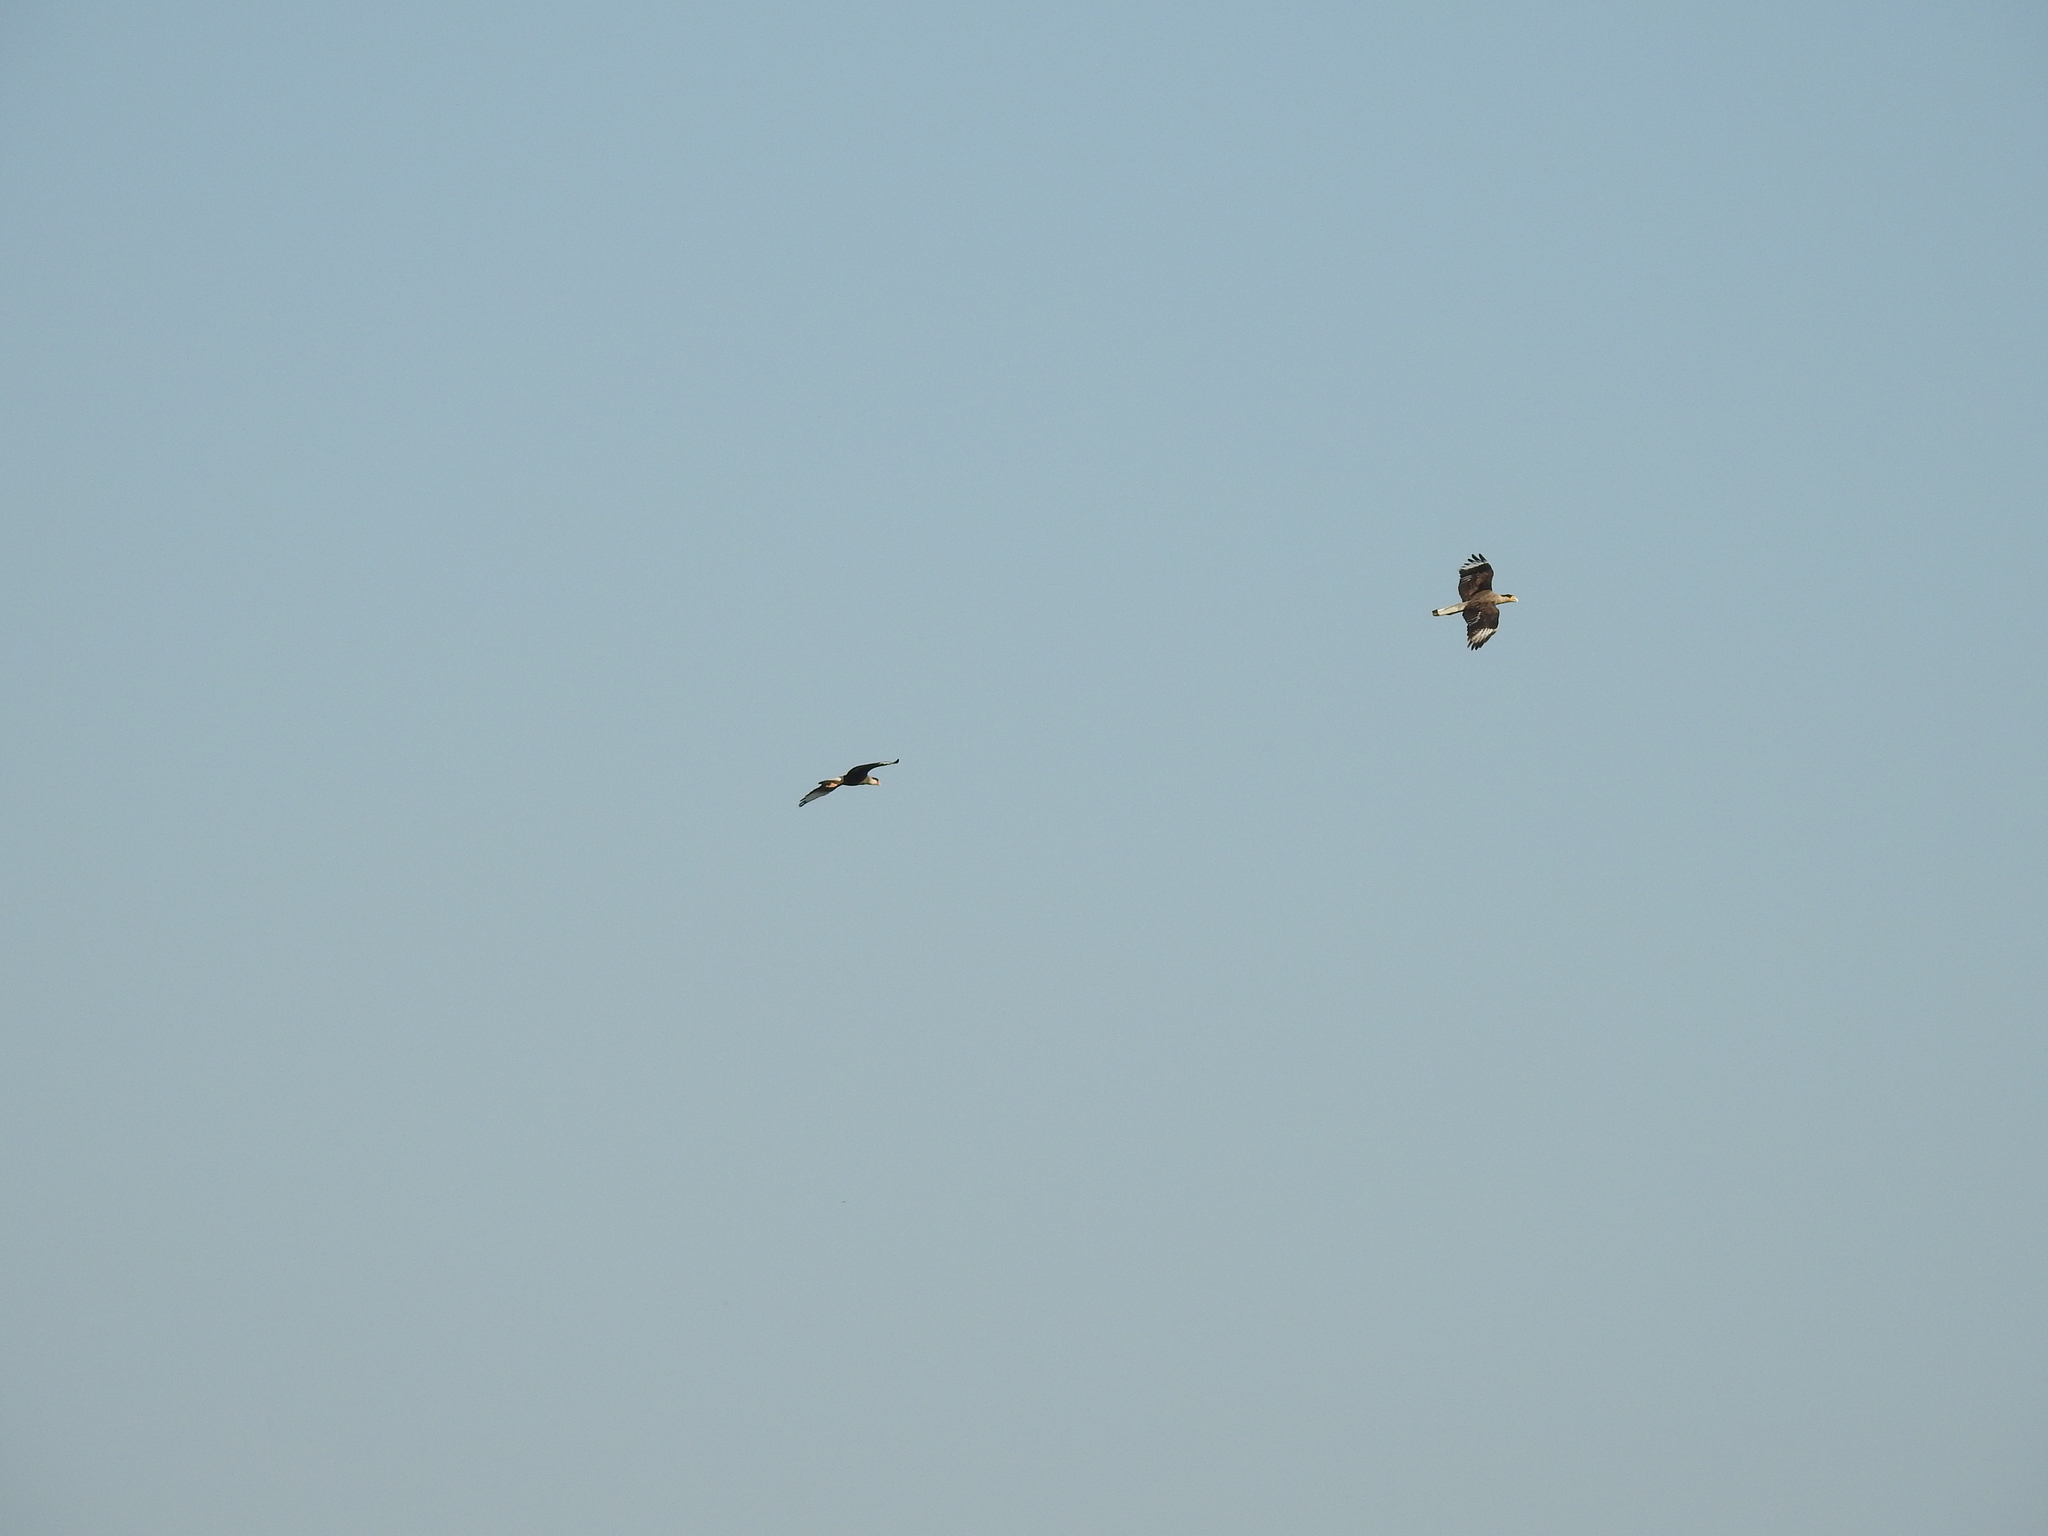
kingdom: Animalia
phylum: Chordata
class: Aves
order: Falconiformes
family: Falconidae
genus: Caracara
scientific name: Caracara plancus
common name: Southern caracara
